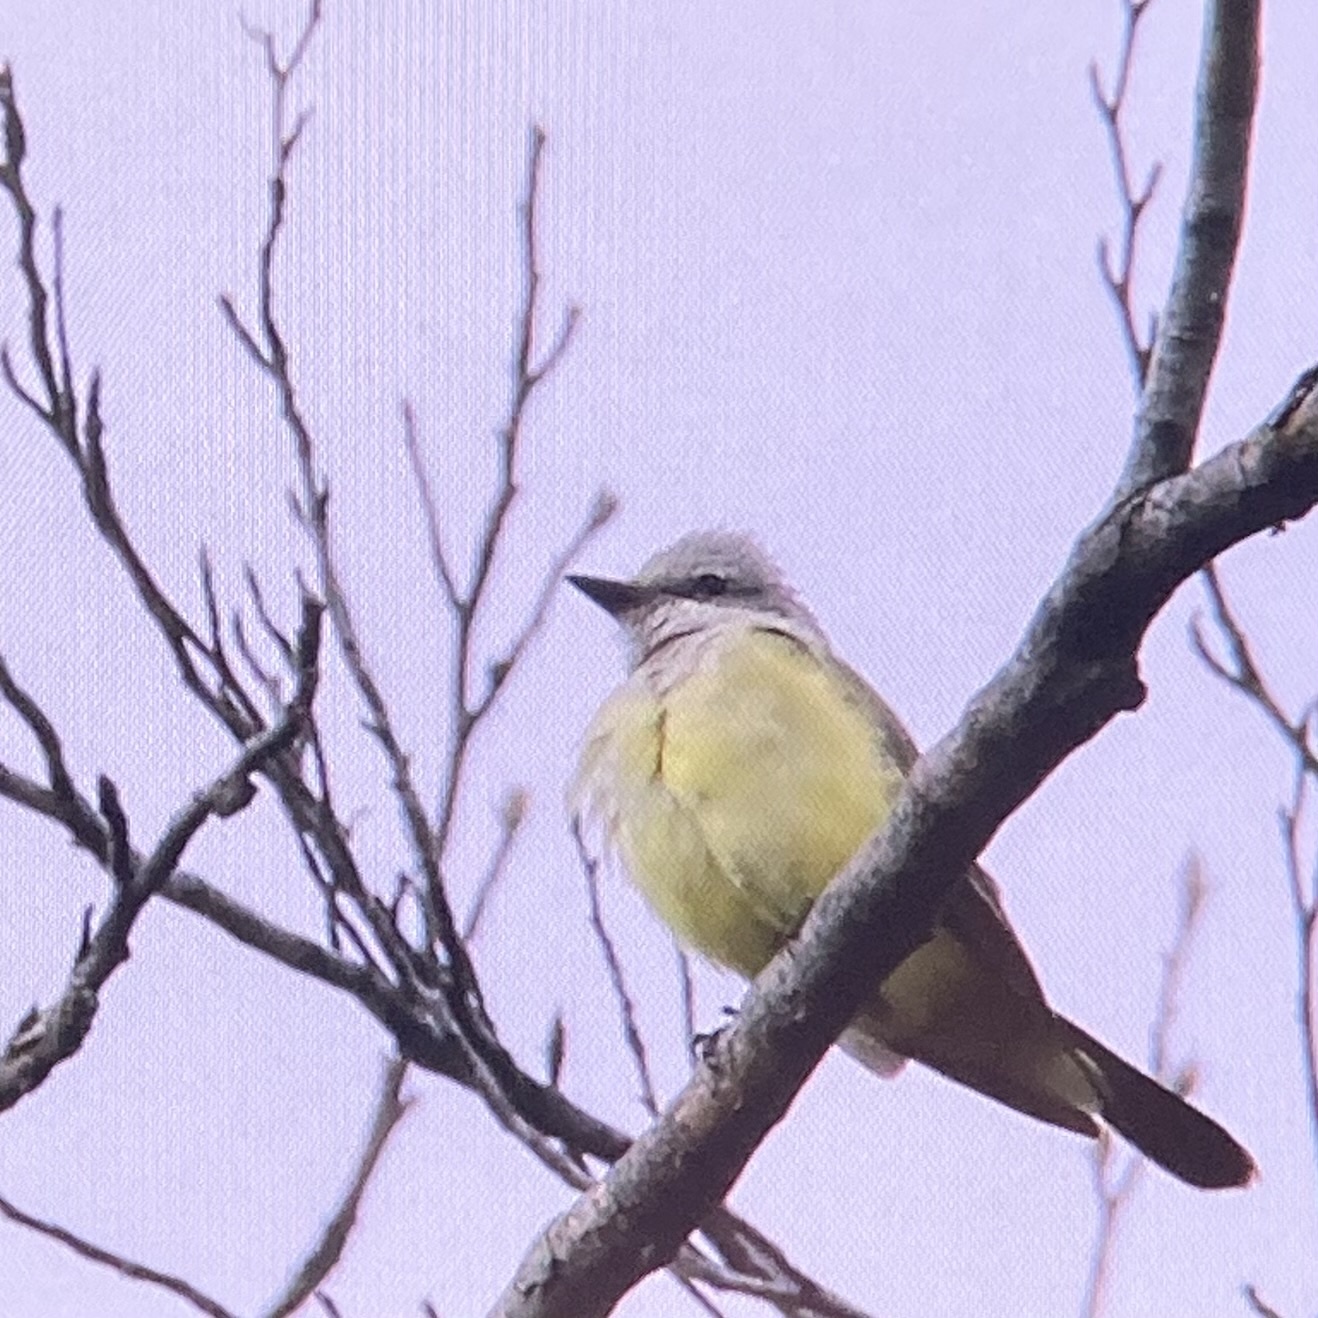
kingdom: Animalia
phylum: Chordata
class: Aves
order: Passeriformes
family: Tyrannidae
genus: Tyrannus
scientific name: Tyrannus verticalis
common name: Western kingbird
